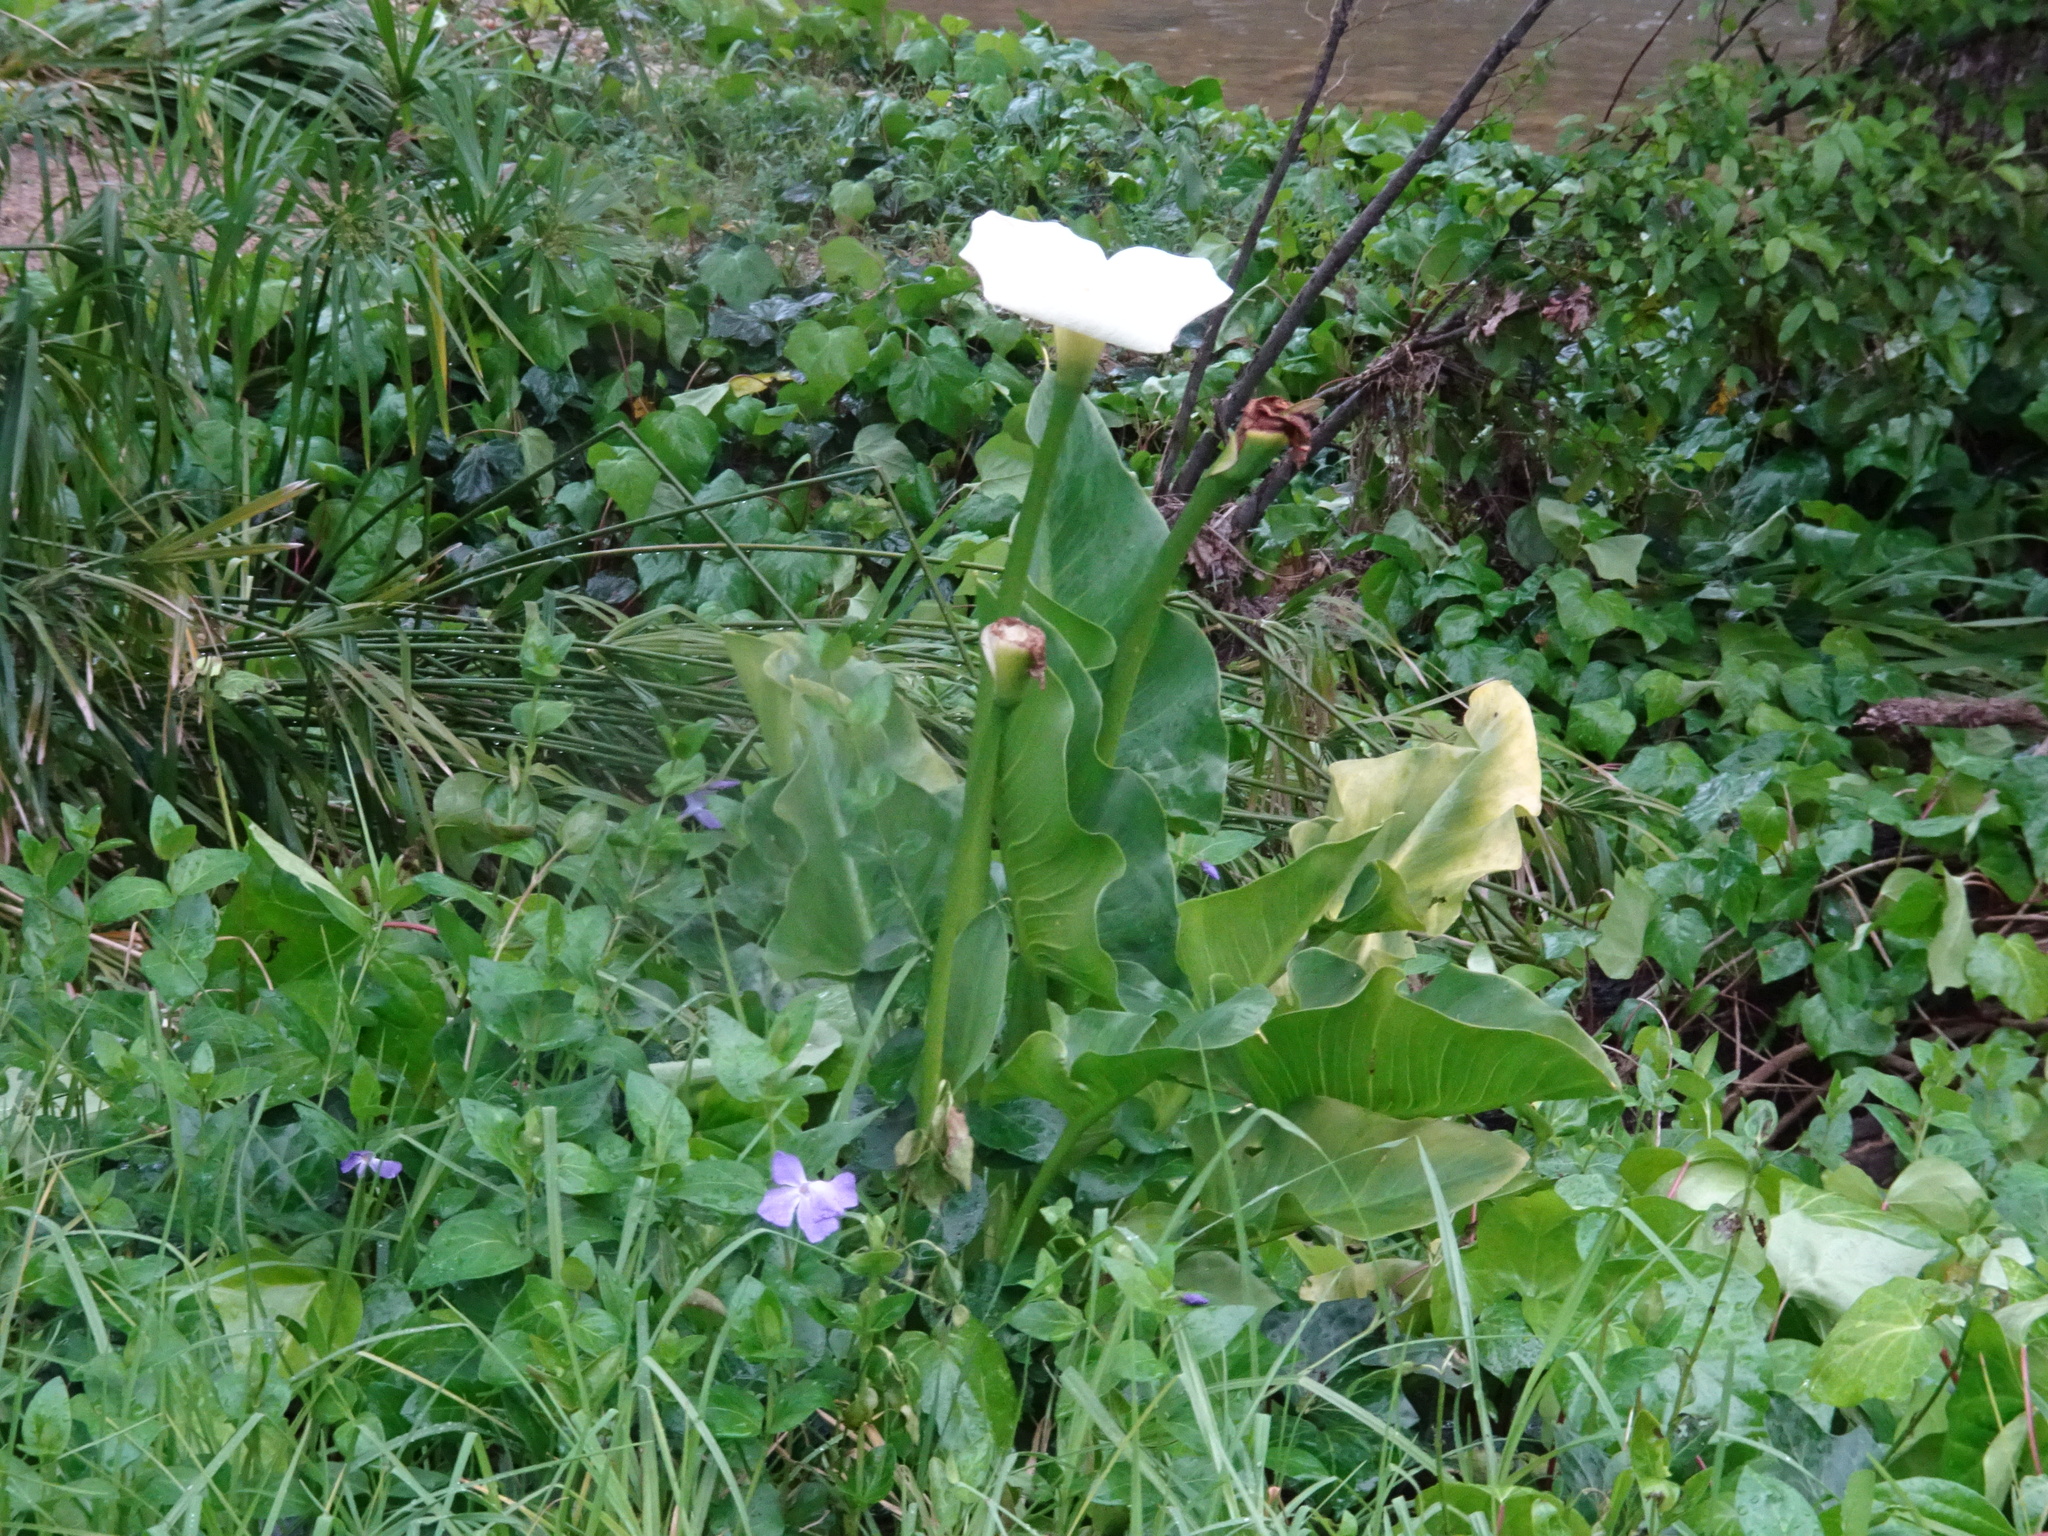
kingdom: Plantae
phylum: Tracheophyta
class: Liliopsida
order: Alismatales
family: Araceae
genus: Zantedeschia
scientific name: Zantedeschia aethiopica
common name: Altar-lily
